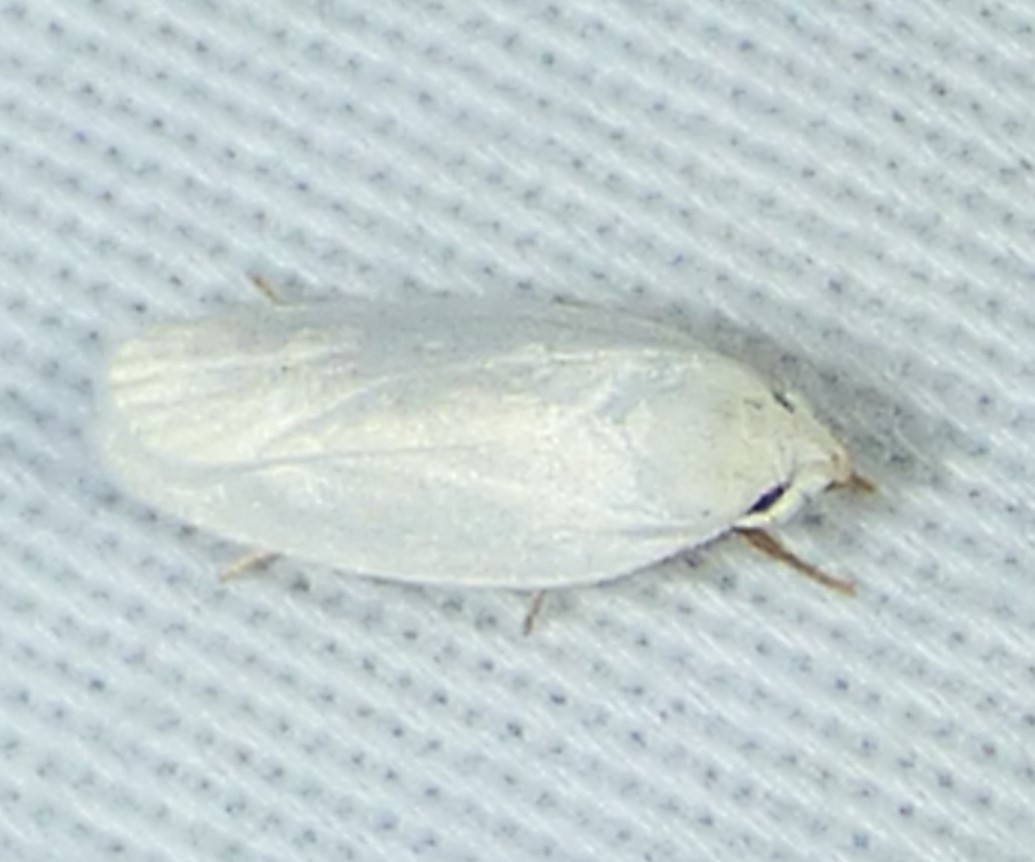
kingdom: Animalia
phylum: Arthropoda
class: Insecta
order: Lepidoptera
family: Depressariidae
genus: Antaeotricha
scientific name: Antaeotricha albulella
